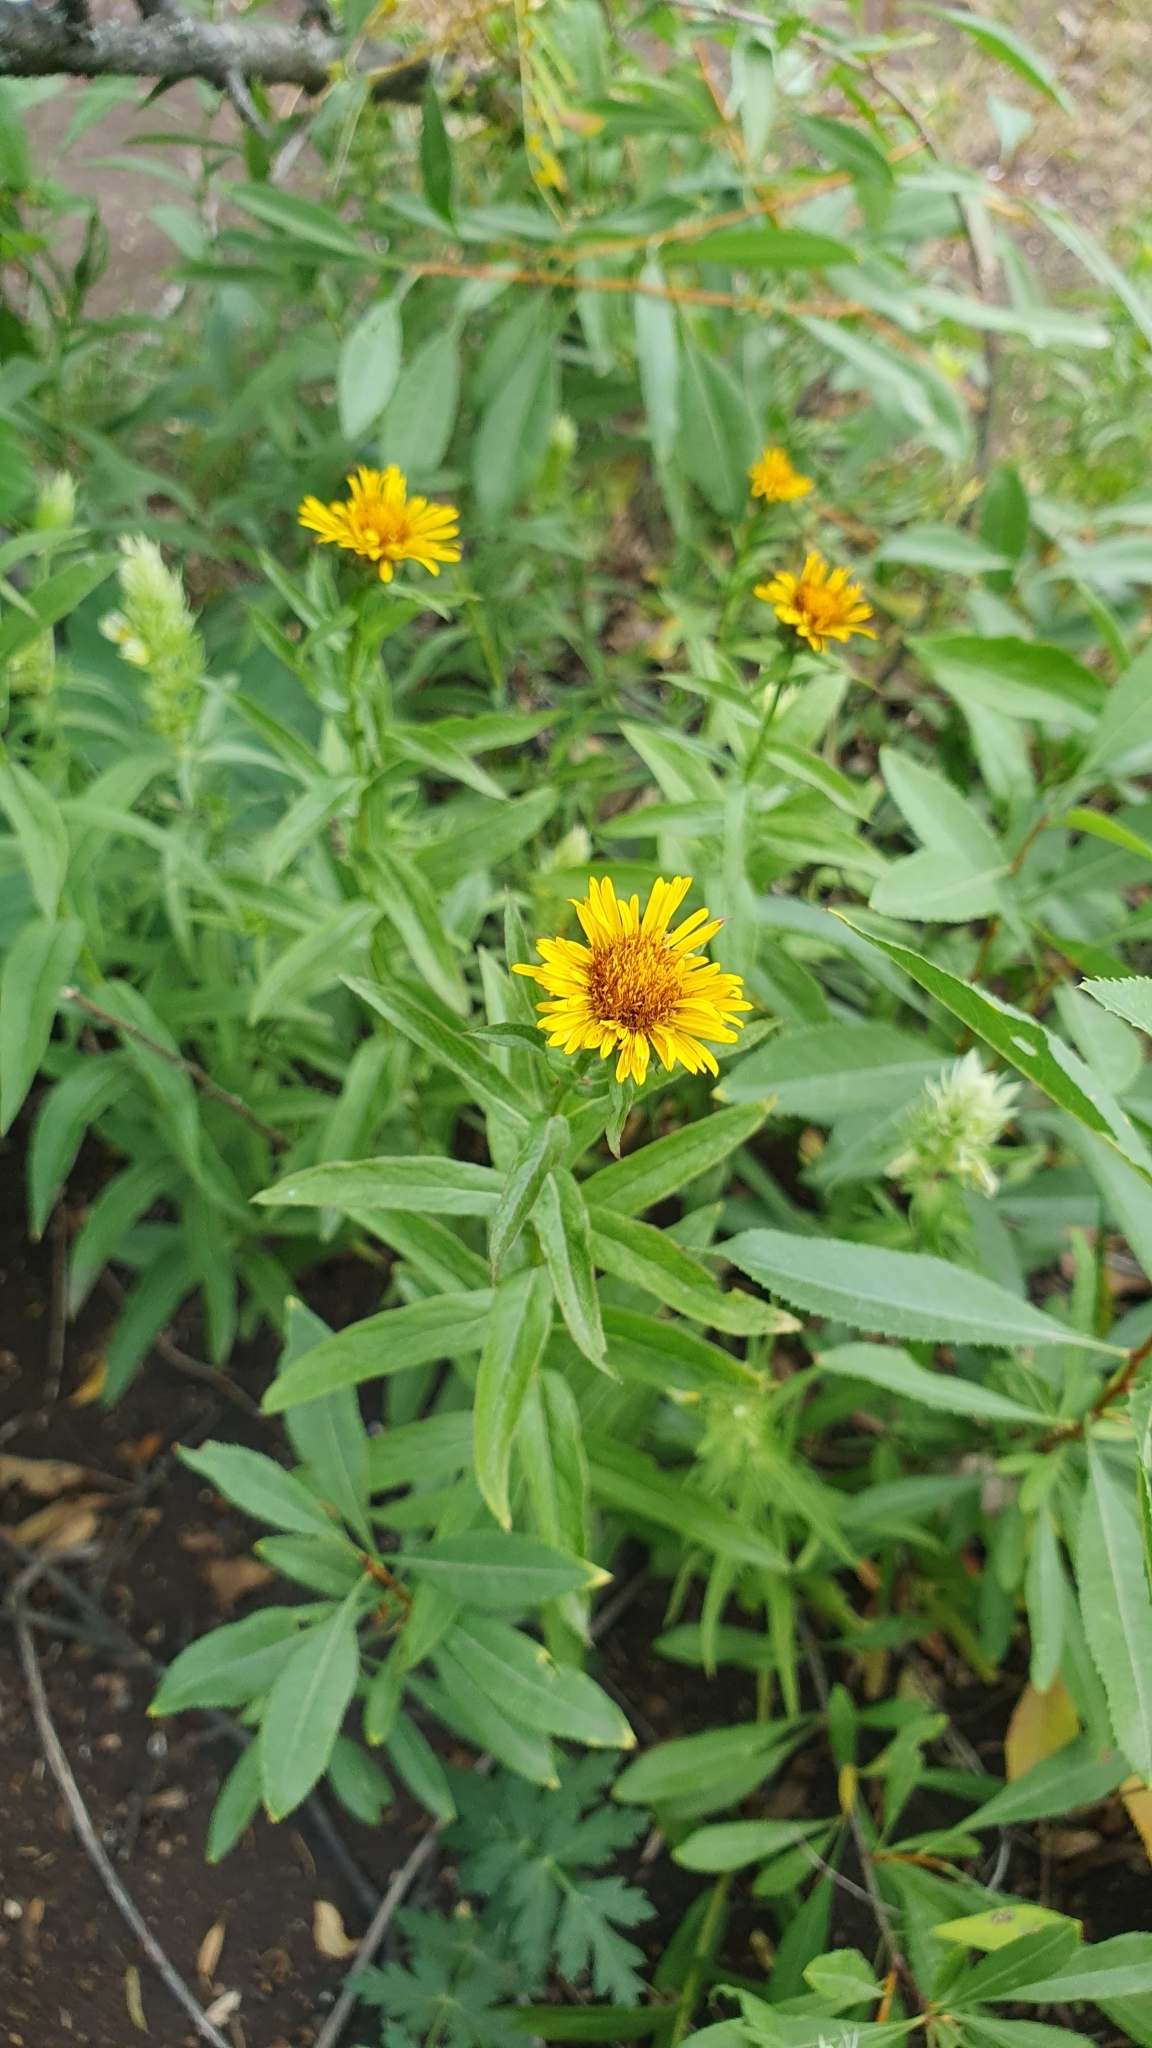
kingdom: Plantae
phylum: Tracheophyta
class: Magnoliopsida
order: Asterales
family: Asteraceae
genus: Pentanema
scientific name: Pentanema salicinum
